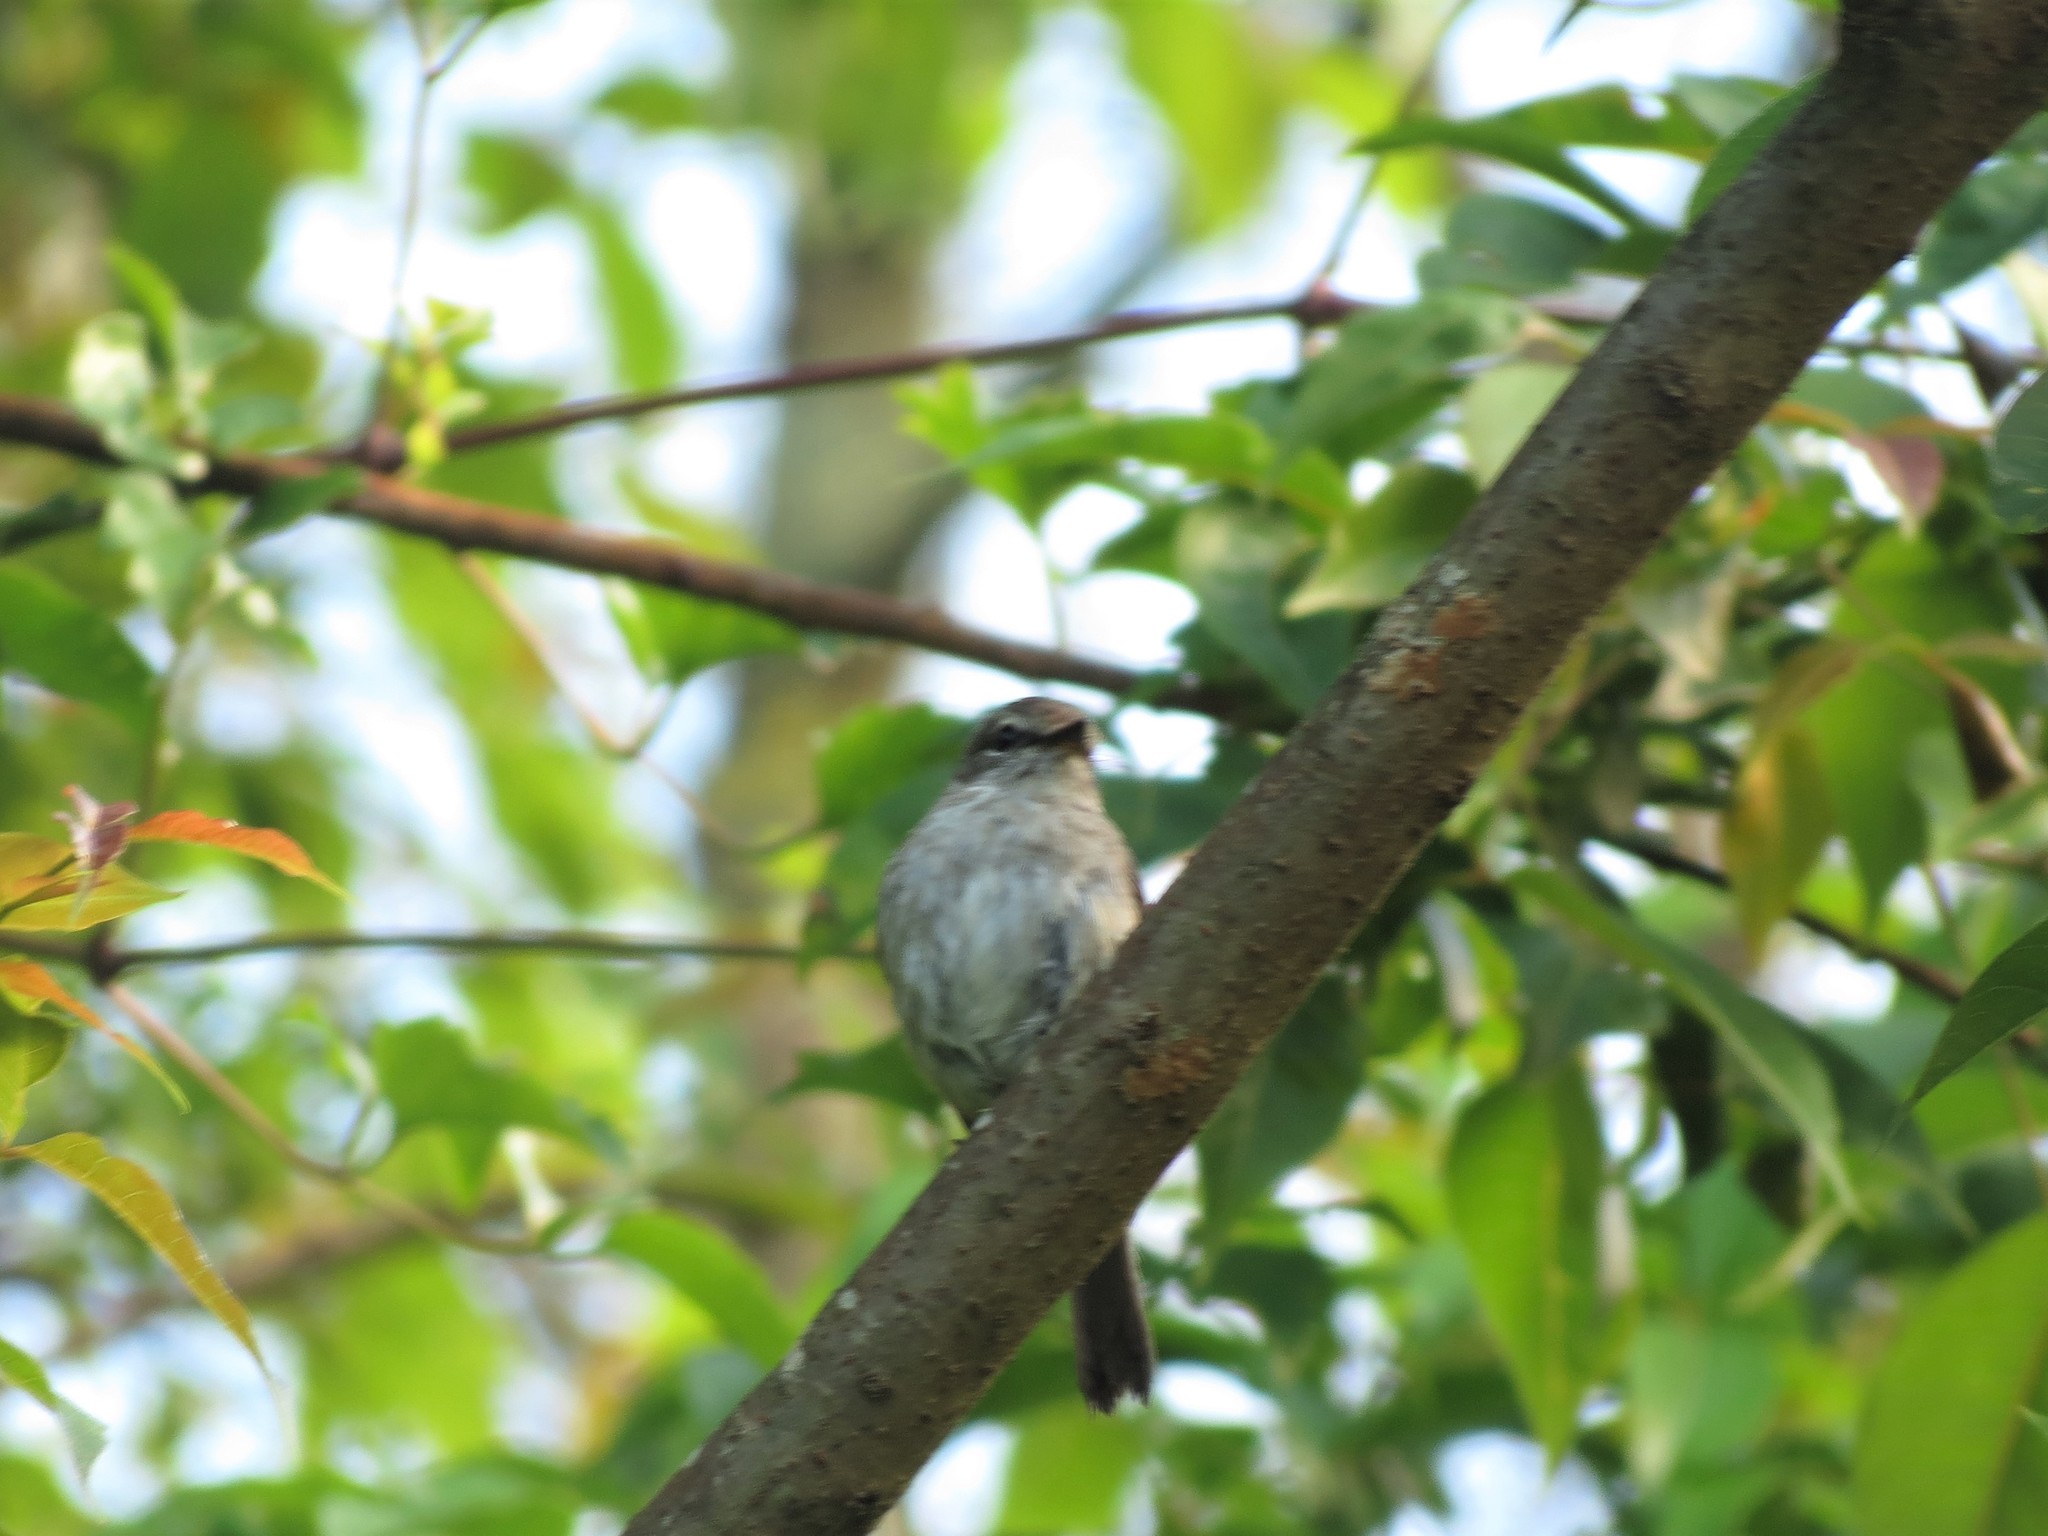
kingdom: Animalia
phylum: Chordata
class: Aves
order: Passeriformes
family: Muscicapidae
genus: Muscicapa
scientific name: Muscicapa adusta
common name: African dusky flycatcher
